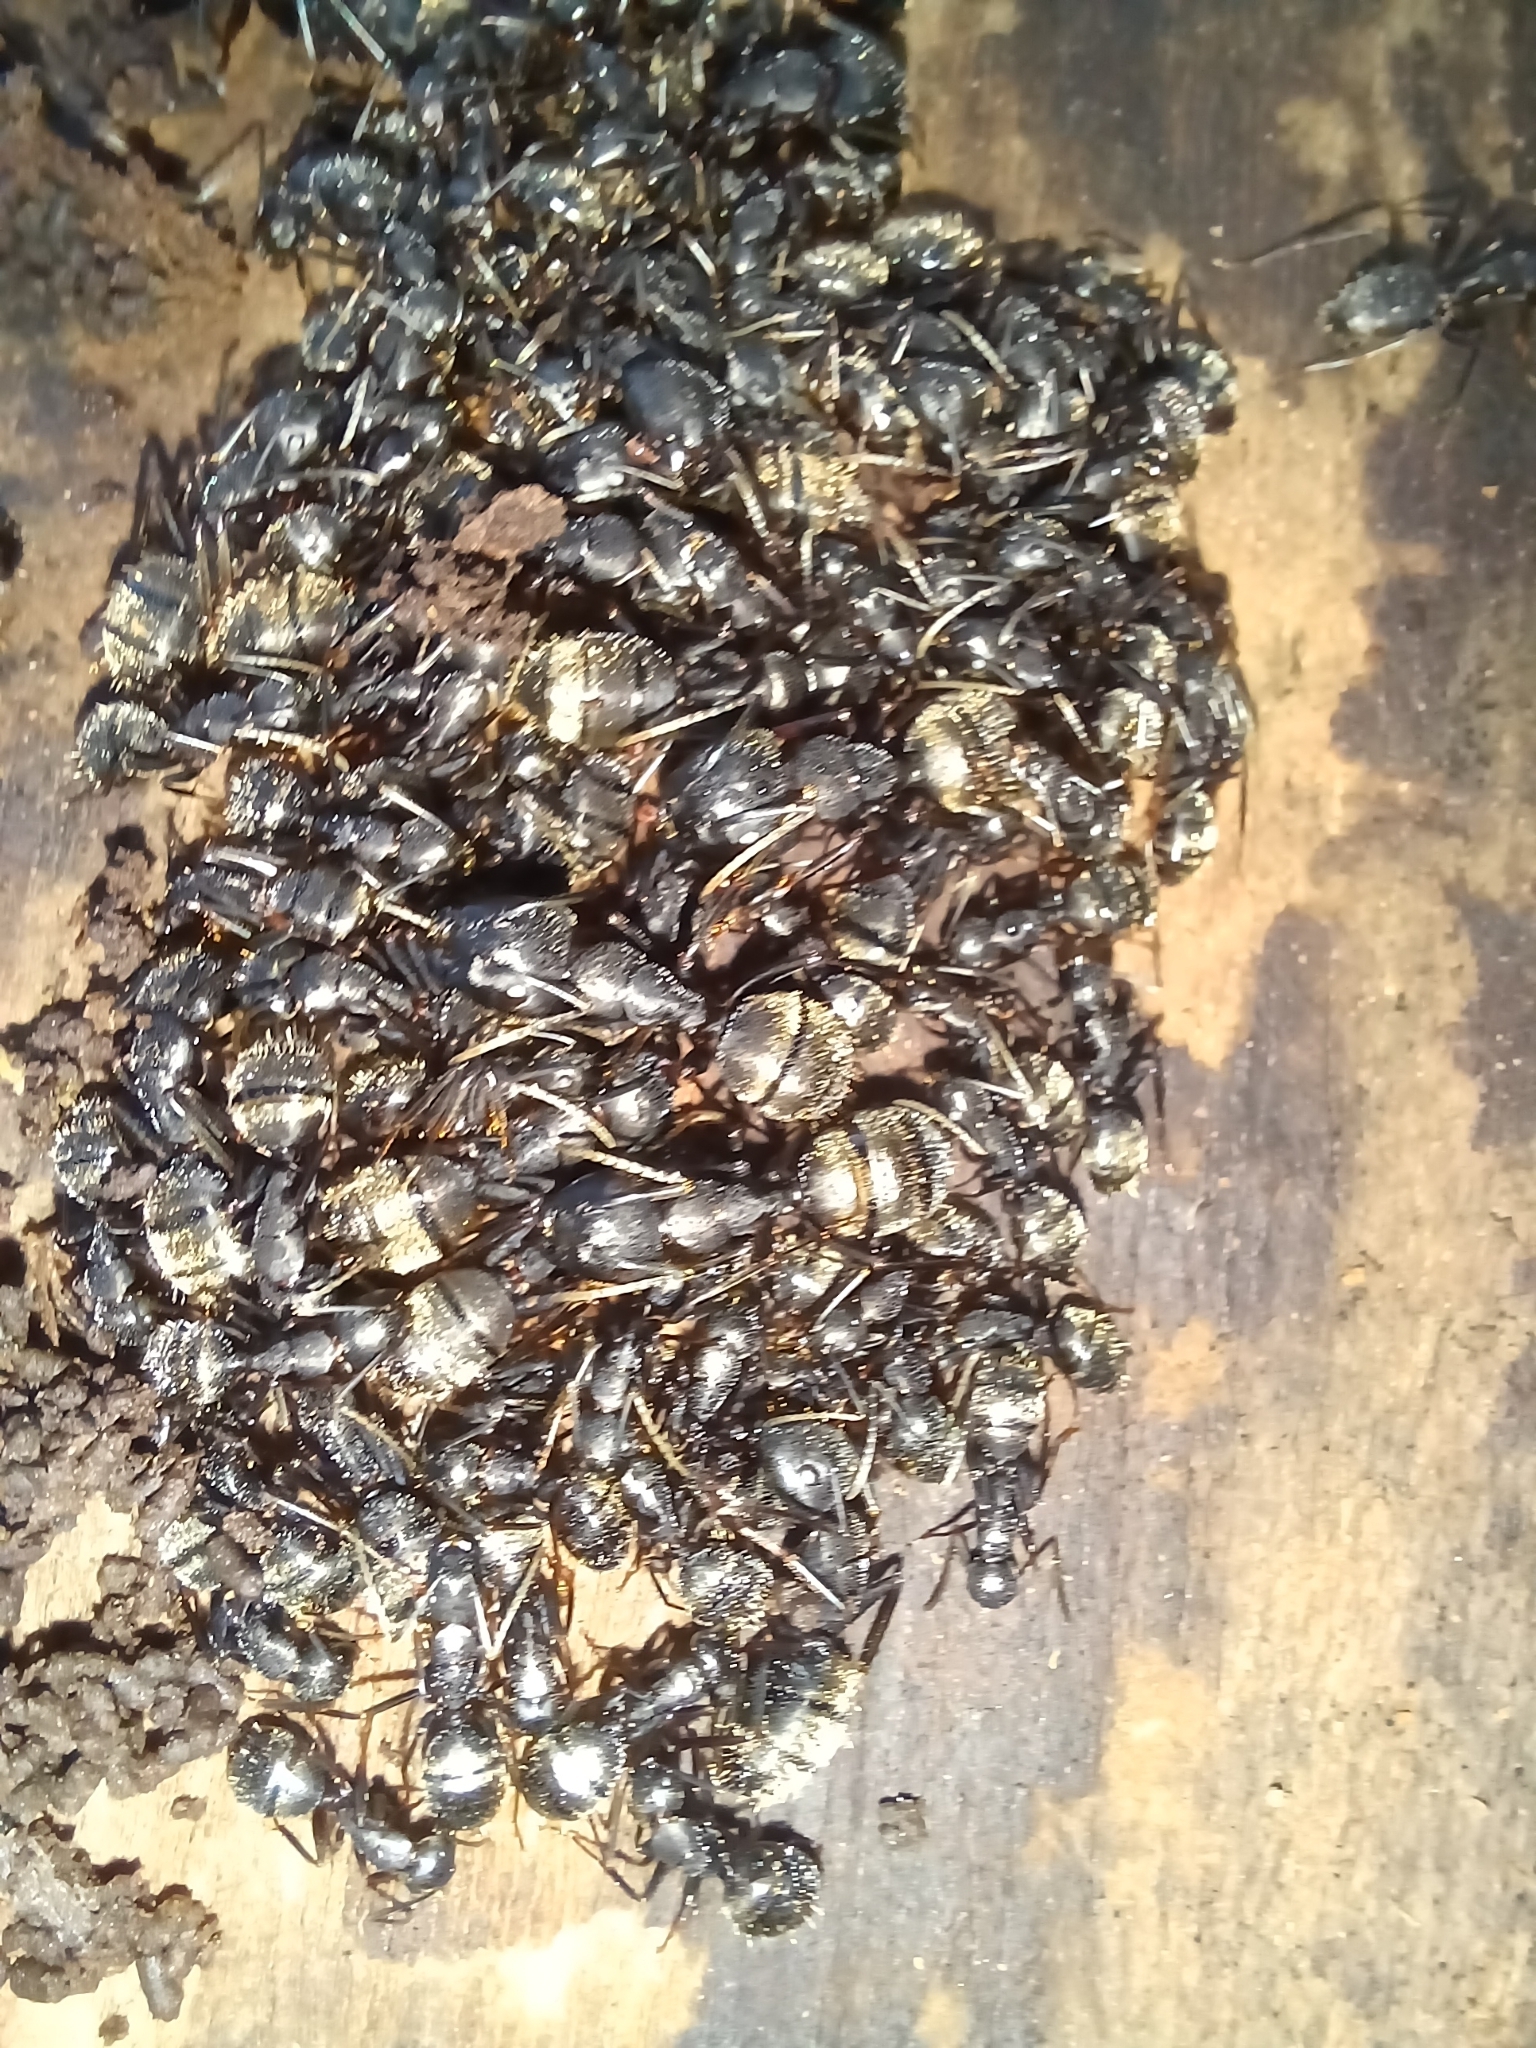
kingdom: Animalia
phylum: Arthropoda
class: Insecta
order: Hymenoptera
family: Formicidae
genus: Camponotus
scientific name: Camponotus pennsylvanicus
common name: Black carpenter ant
